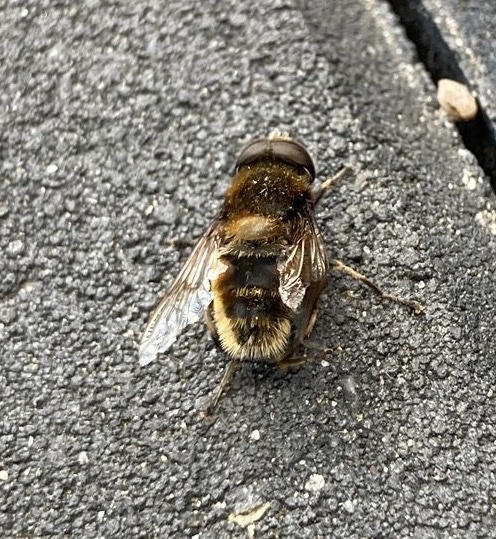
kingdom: Animalia
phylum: Arthropoda
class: Insecta
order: Diptera
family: Syrphidae
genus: Eristalis
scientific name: Eristalis intricaria
